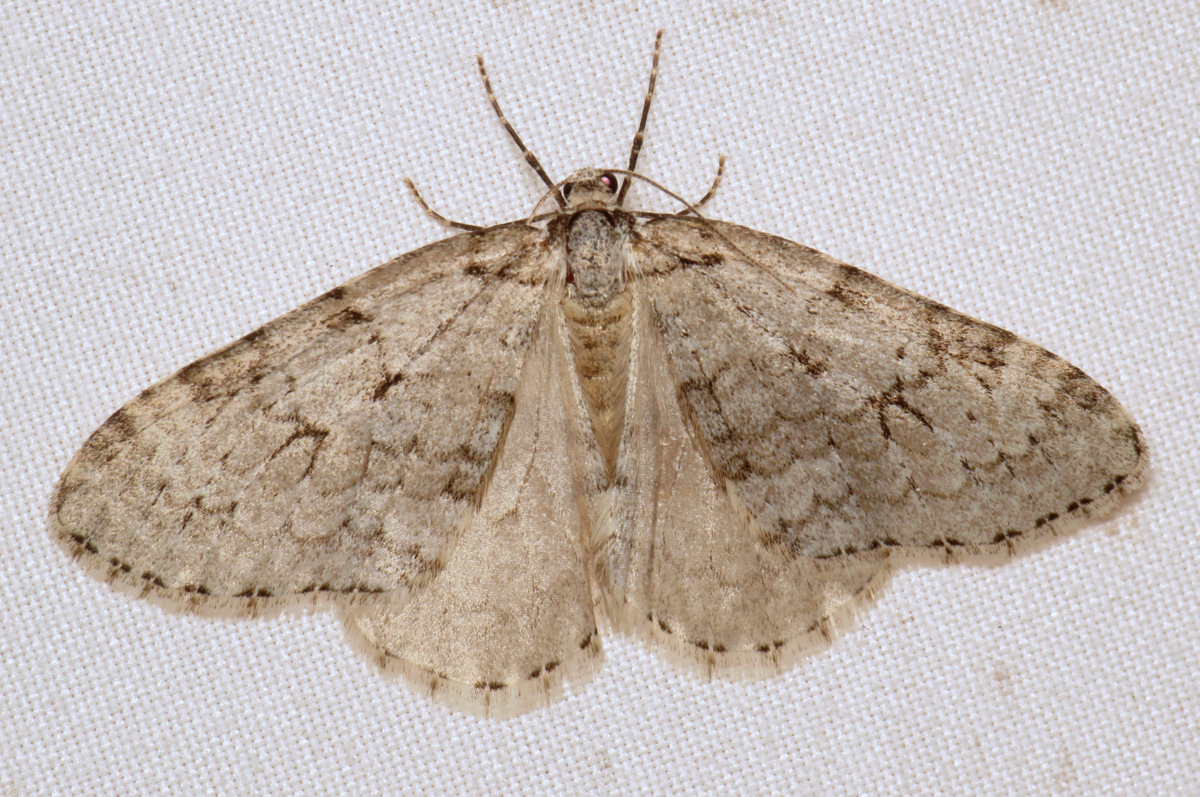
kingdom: Animalia
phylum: Arthropoda
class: Insecta
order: Lepidoptera
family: Geometridae
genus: Epirrita
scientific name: Epirrita autumnata
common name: Autumnal moth
